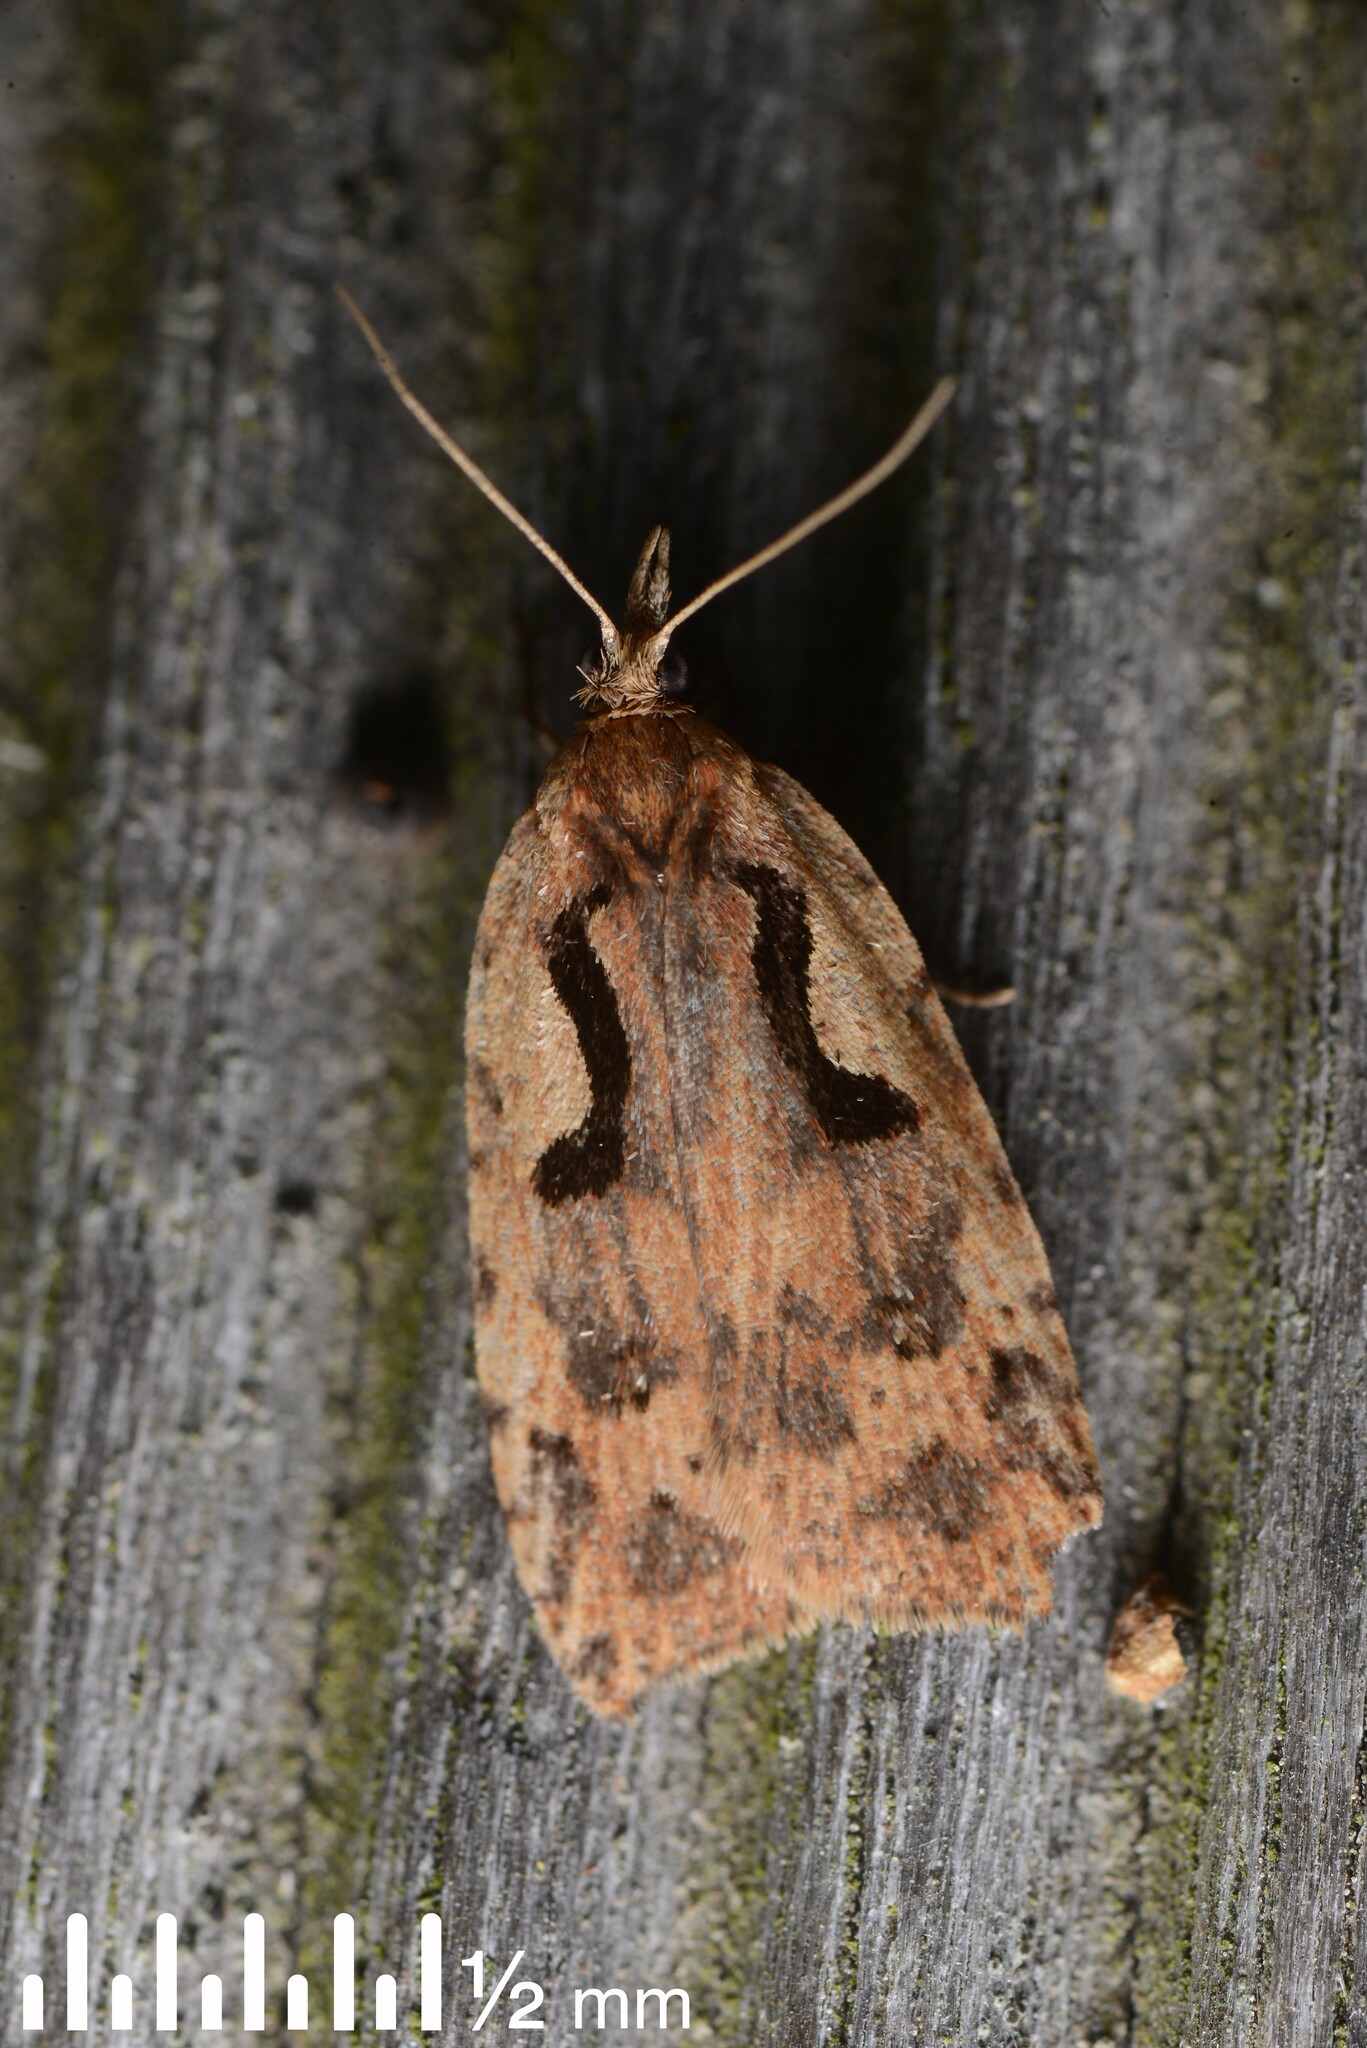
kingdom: Animalia
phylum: Arthropoda
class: Insecta
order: Lepidoptera
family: Tortricidae
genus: Cnephasia
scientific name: Cnephasia jactatana
